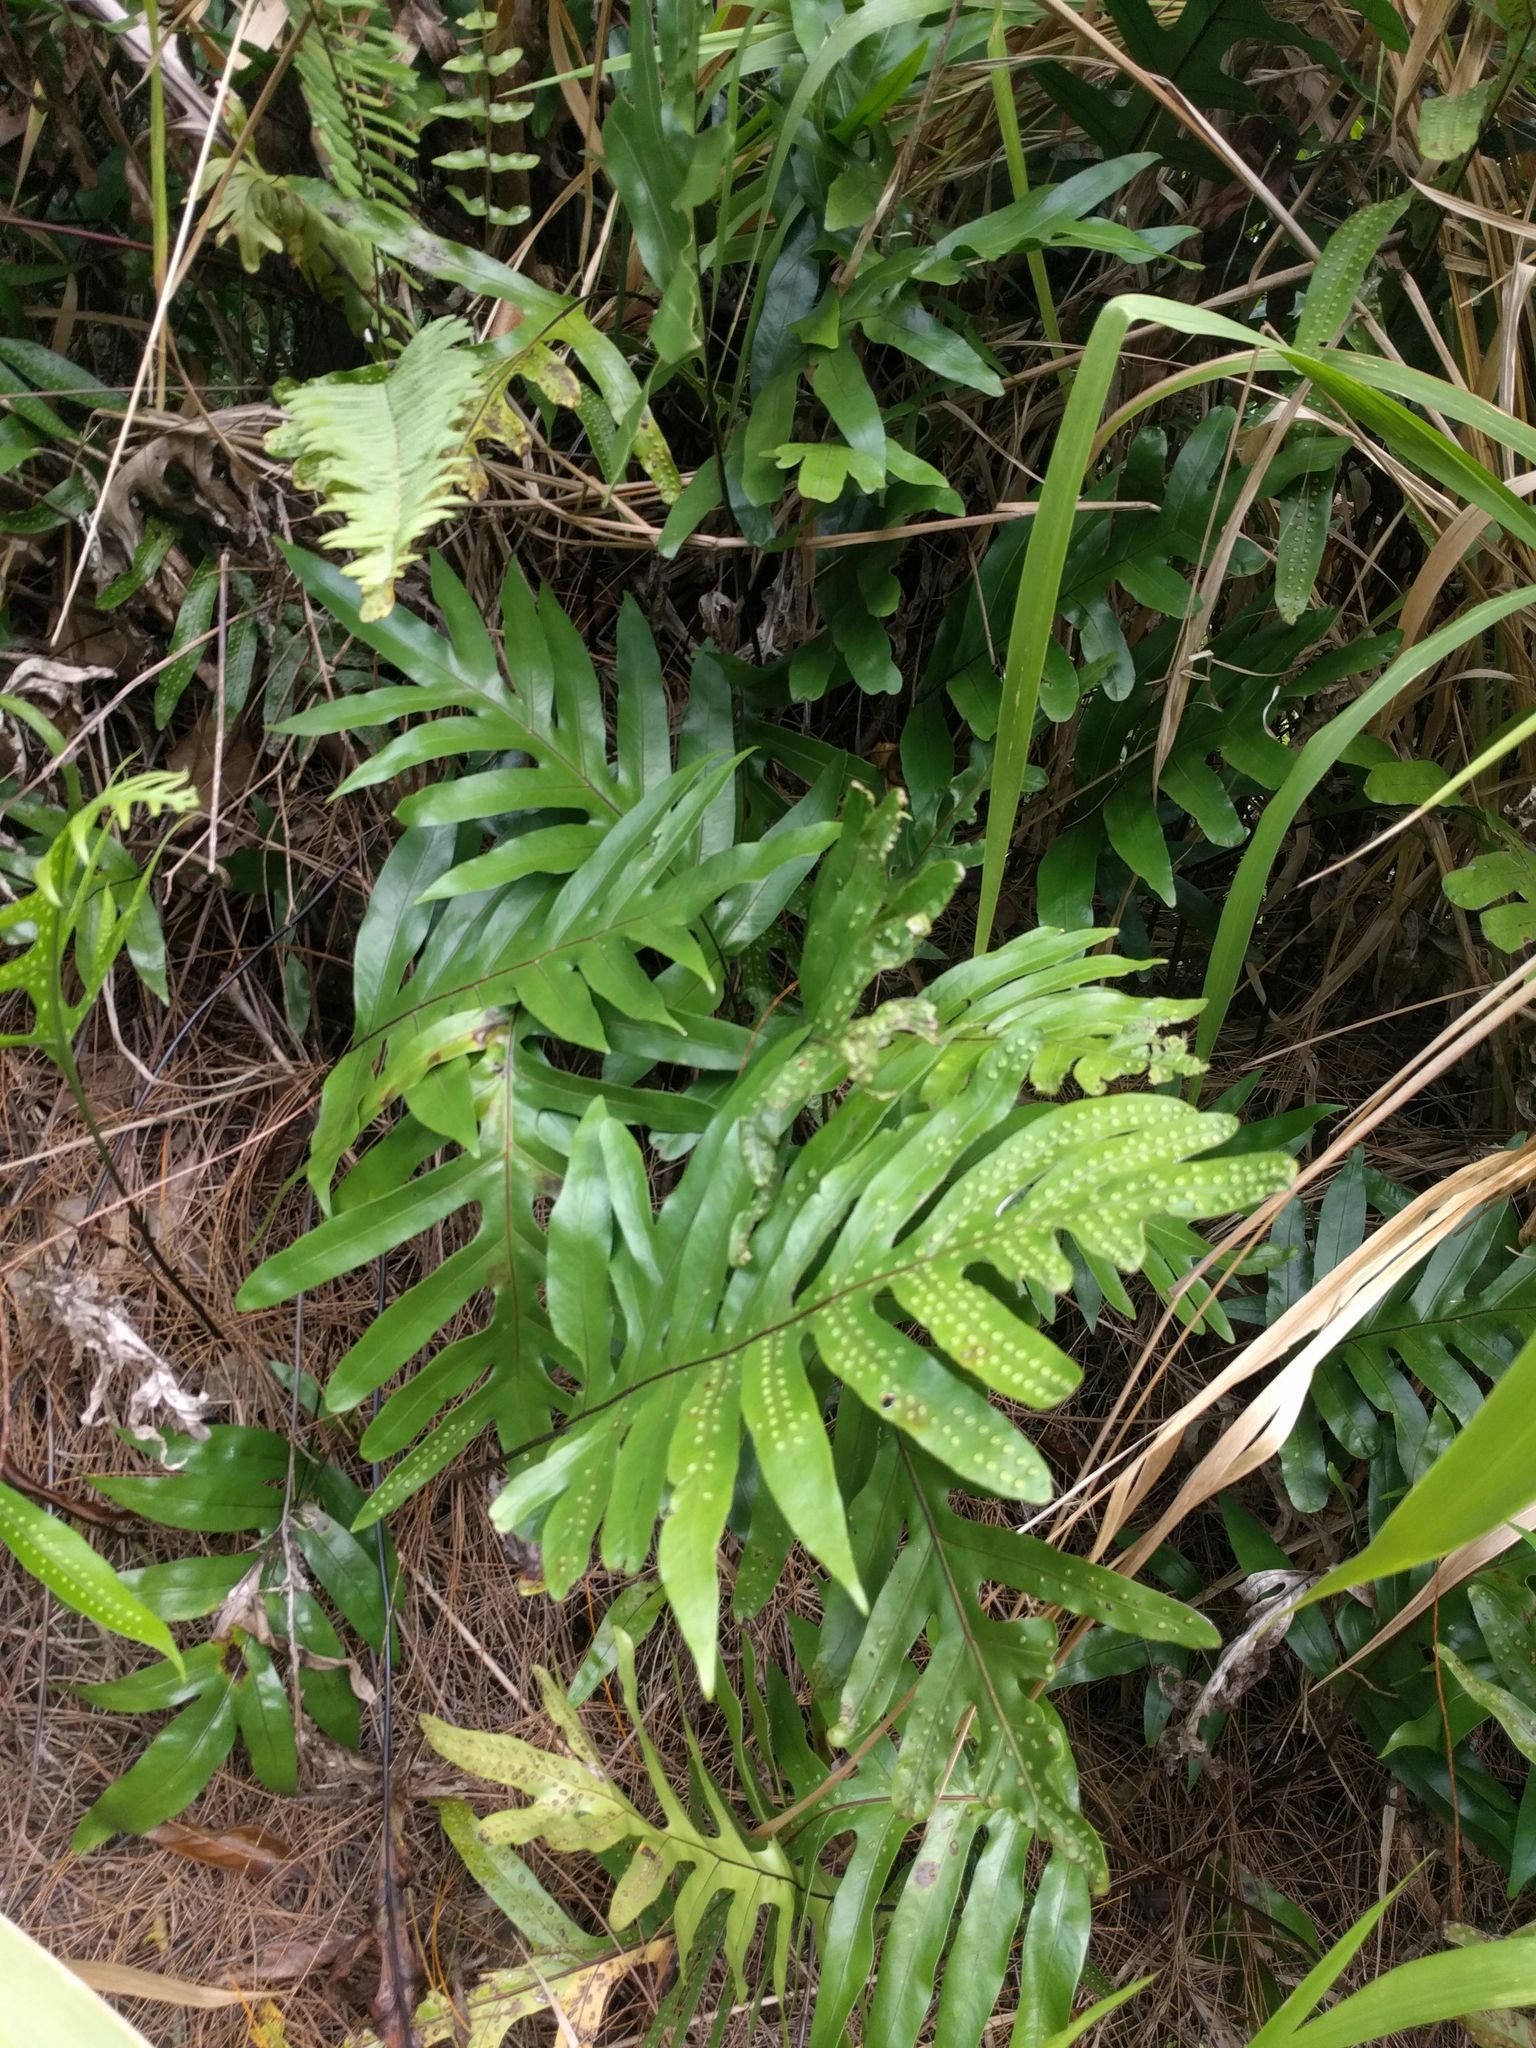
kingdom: Plantae
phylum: Tracheophyta
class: Polypodiopsida
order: Polypodiales
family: Polypodiaceae
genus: Microsorum
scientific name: Microsorum grossum
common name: Musk fern
